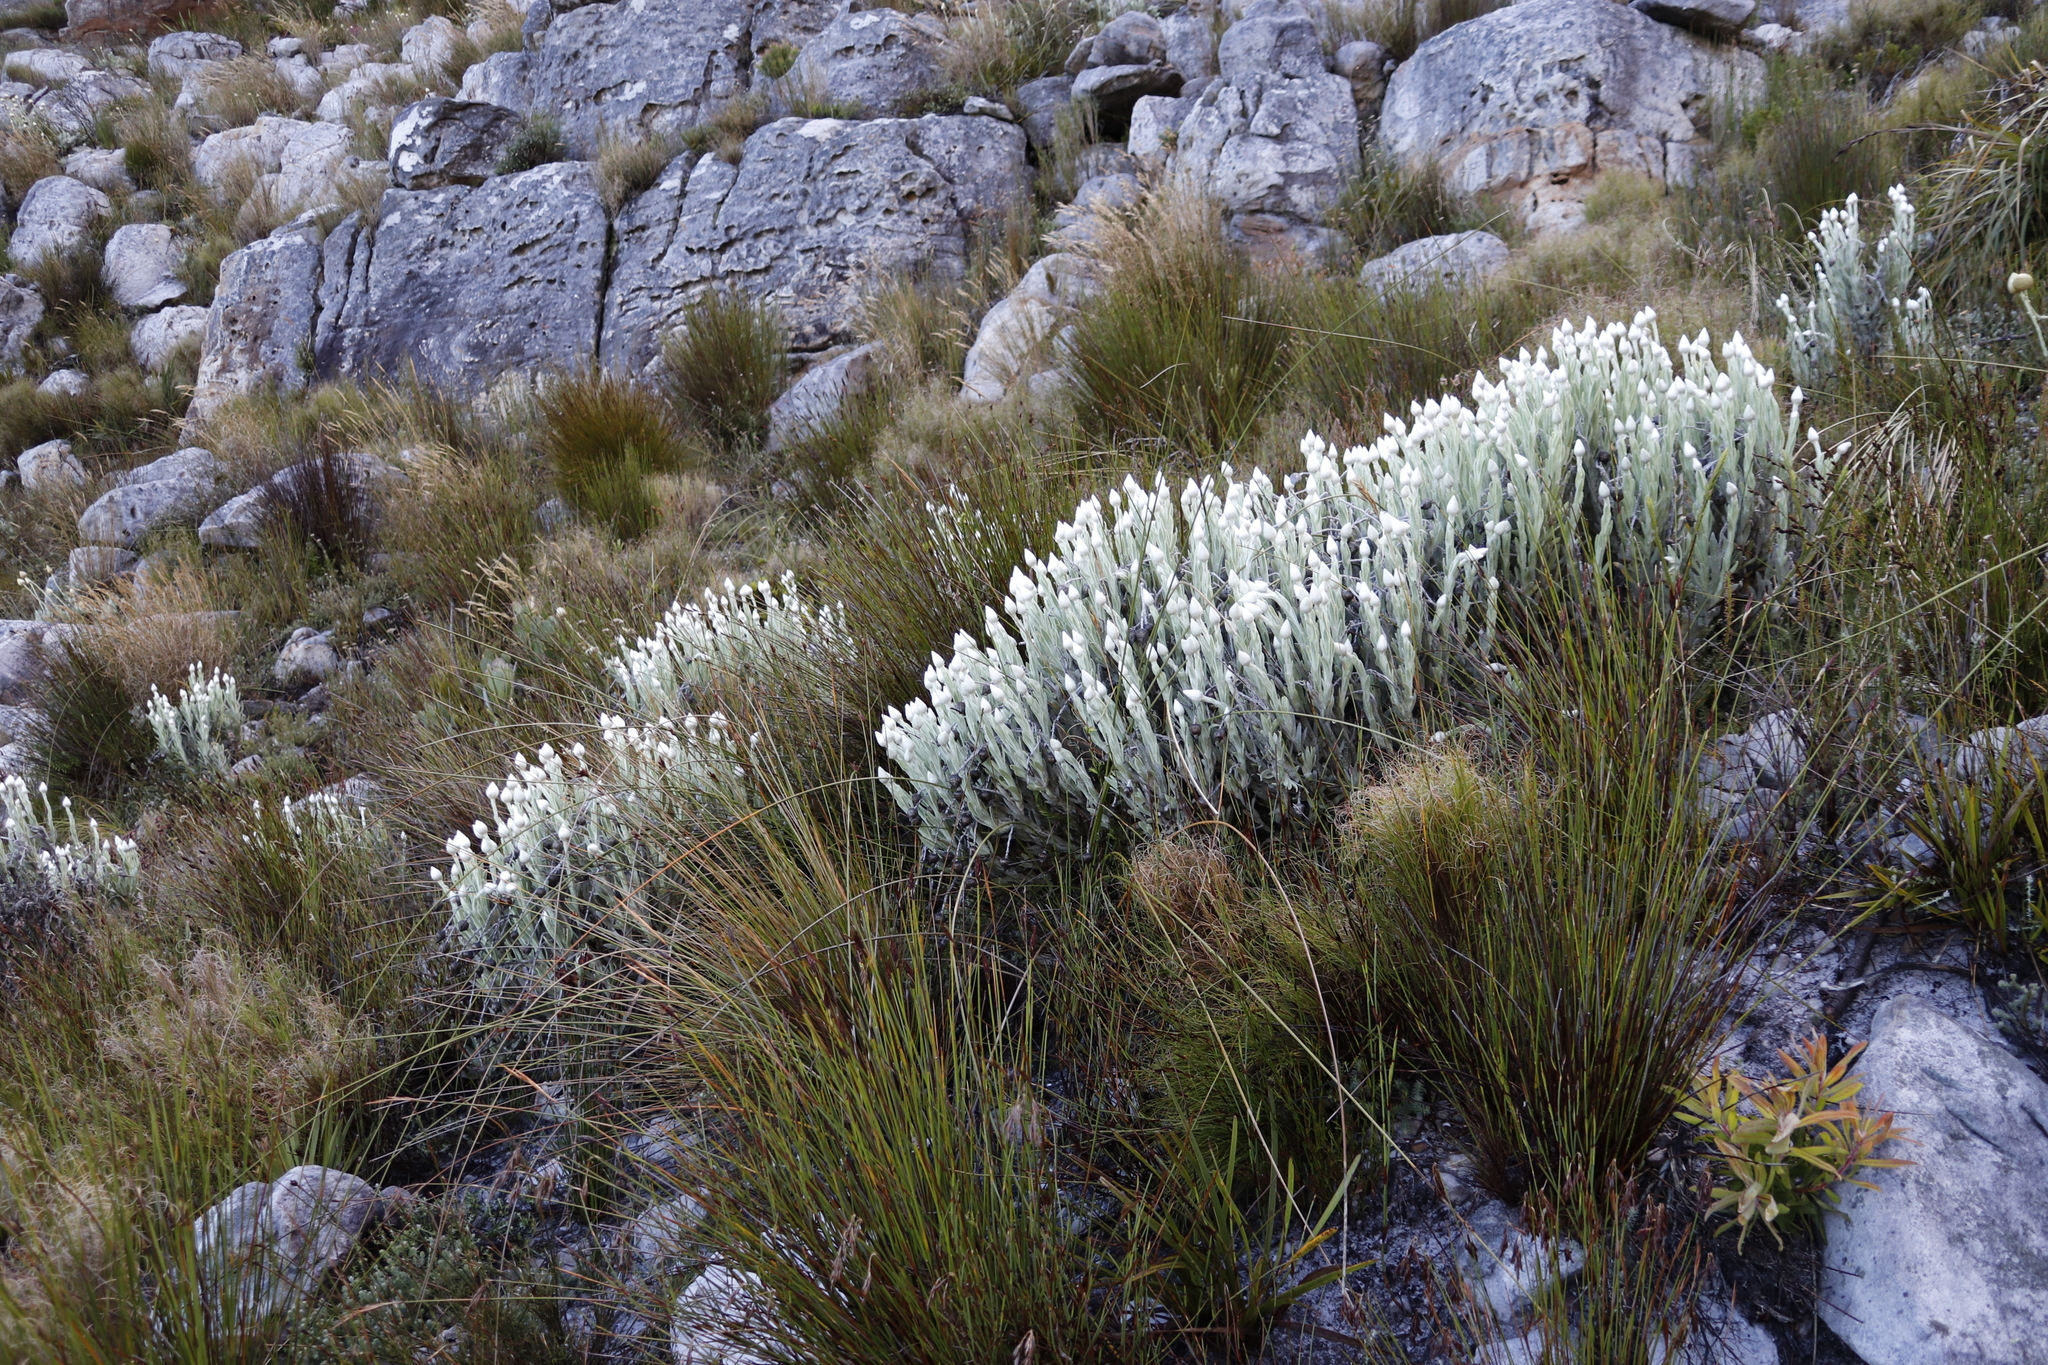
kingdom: Plantae
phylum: Tracheophyta
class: Magnoliopsida
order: Asterales
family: Asteraceae
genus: Syncarpha
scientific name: Syncarpha vestita
